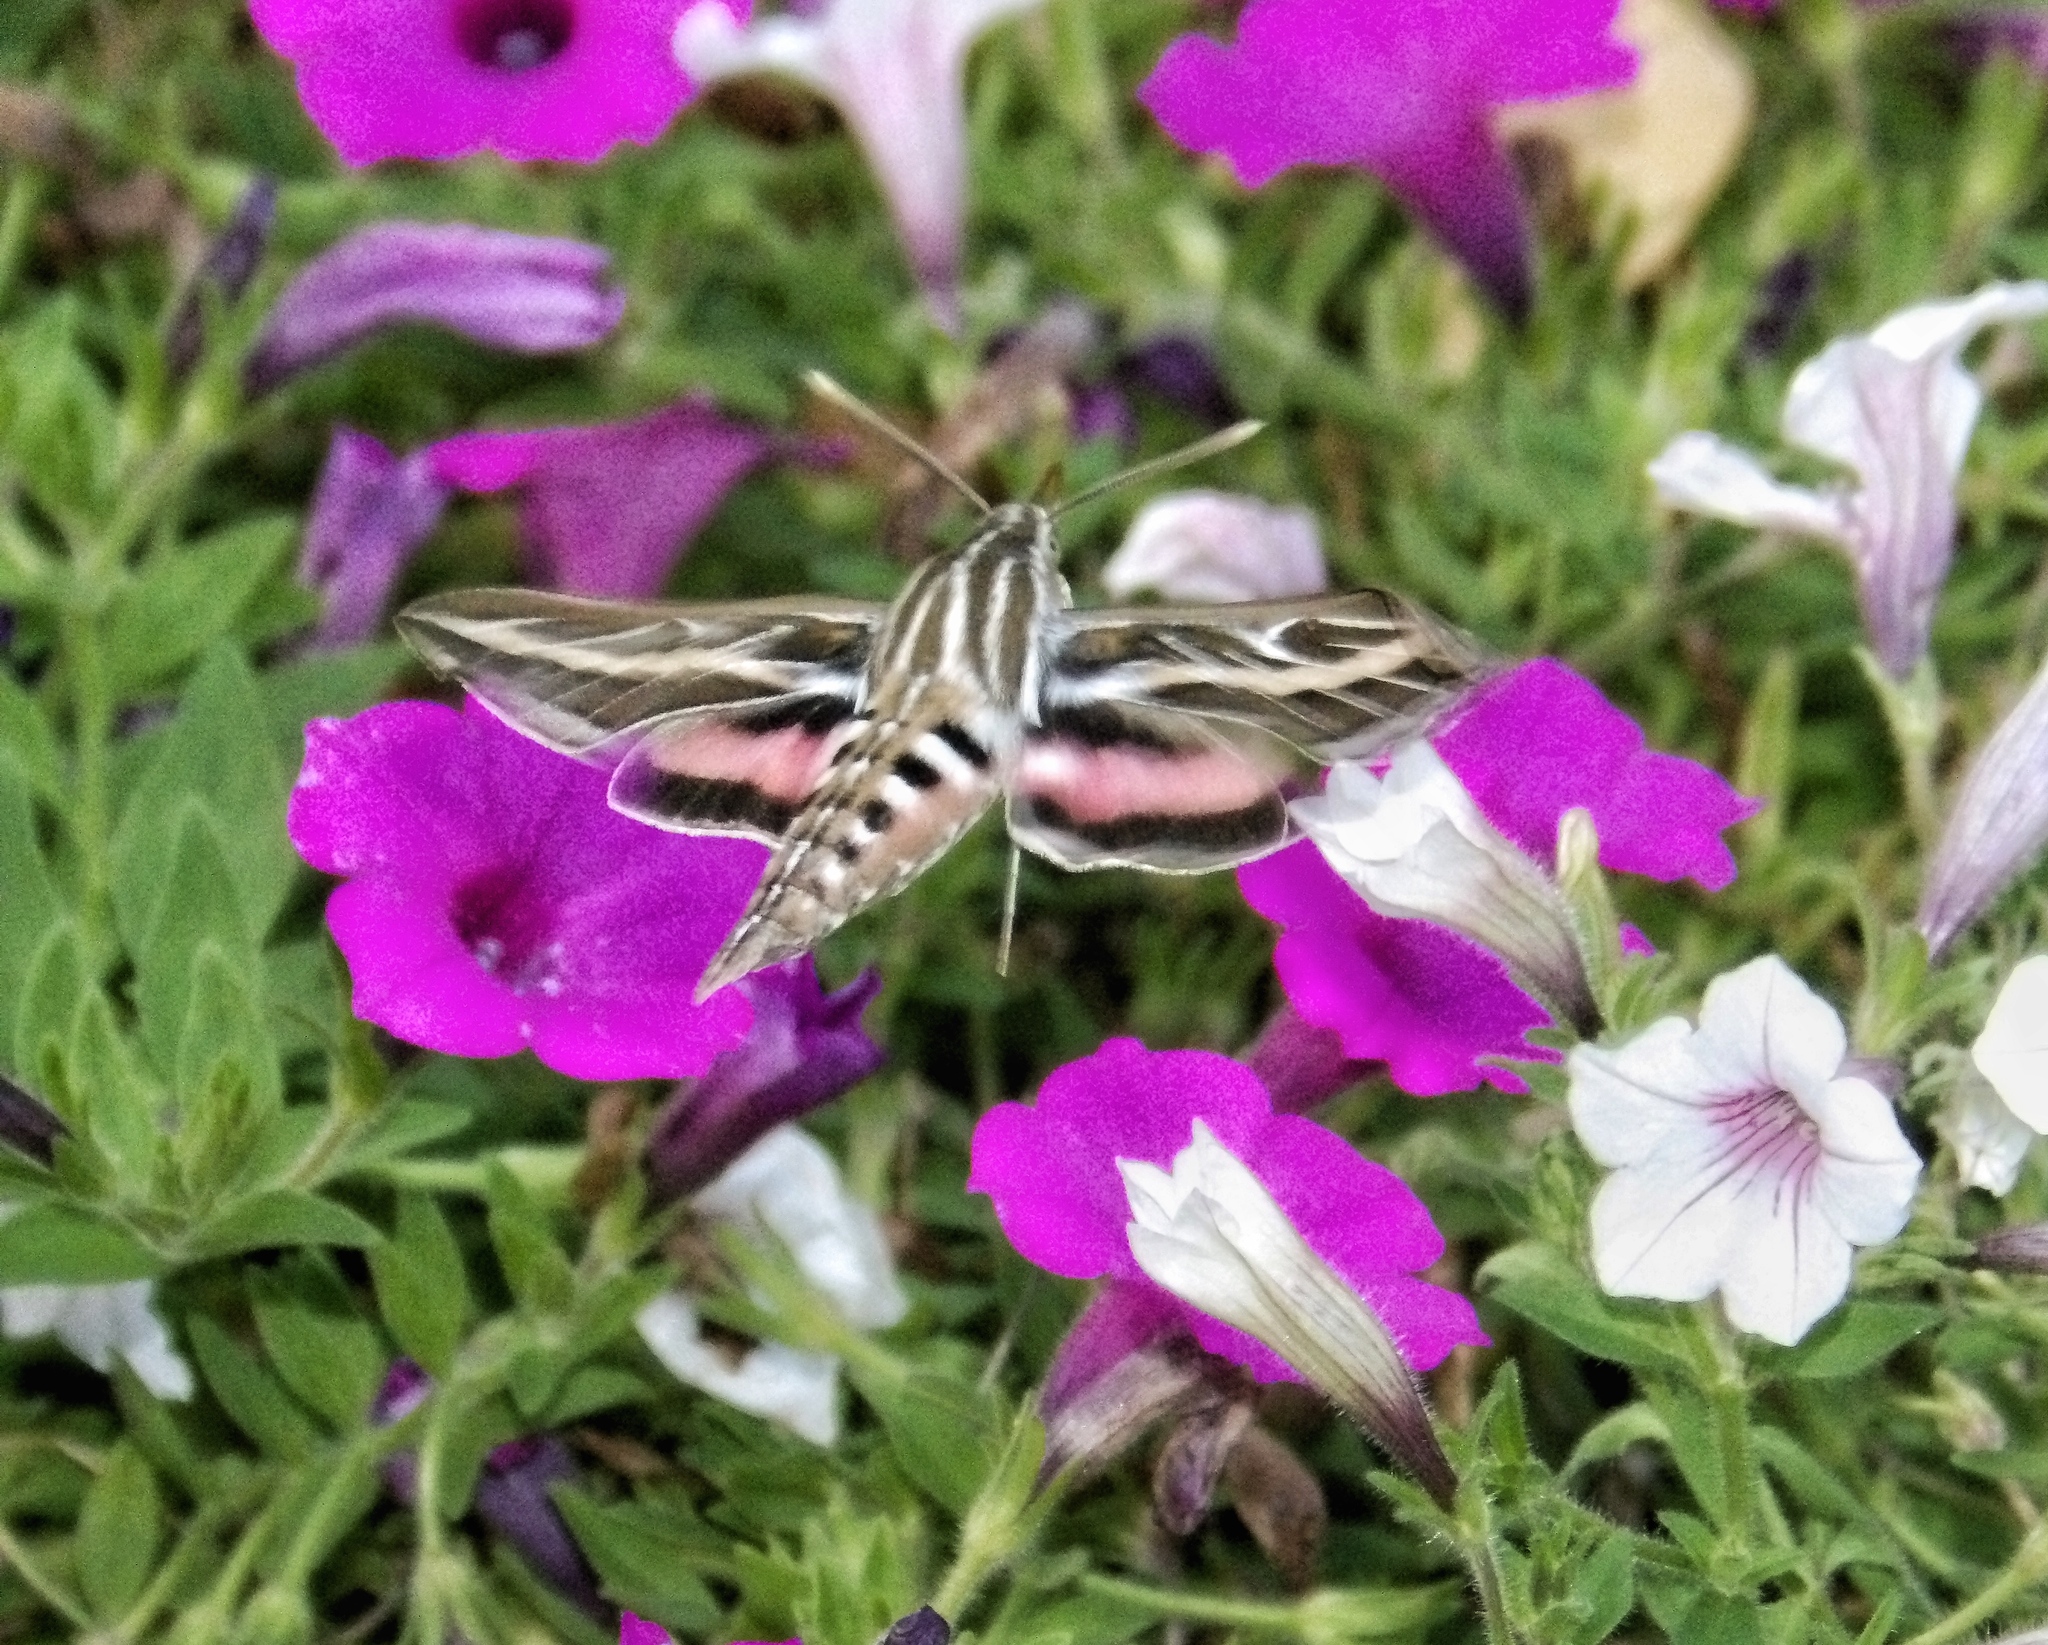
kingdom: Animalia
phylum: Arthropoda
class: Insecta
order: Lepidoptera
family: Sphingidae
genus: Hyles
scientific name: Hyles lineata
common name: White-lined sphinx
